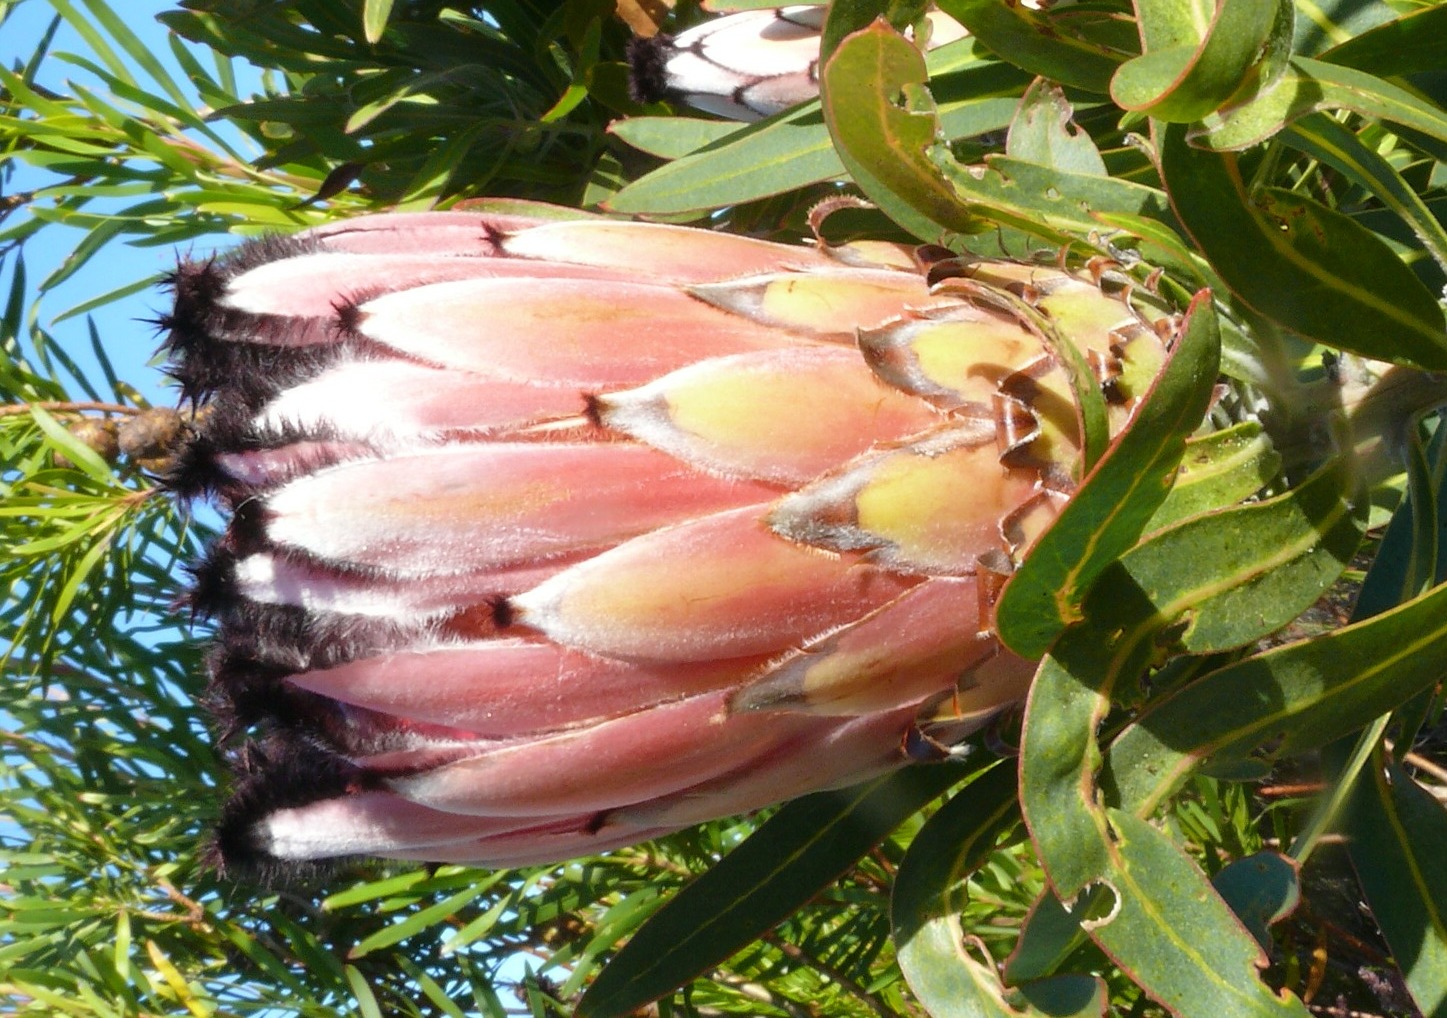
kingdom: Plantae
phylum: Tracheophyta
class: Magnoliopsida
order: Proteales
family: Proteaceae
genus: Protea
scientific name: Protea neriifolia
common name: Blue sugarbush
